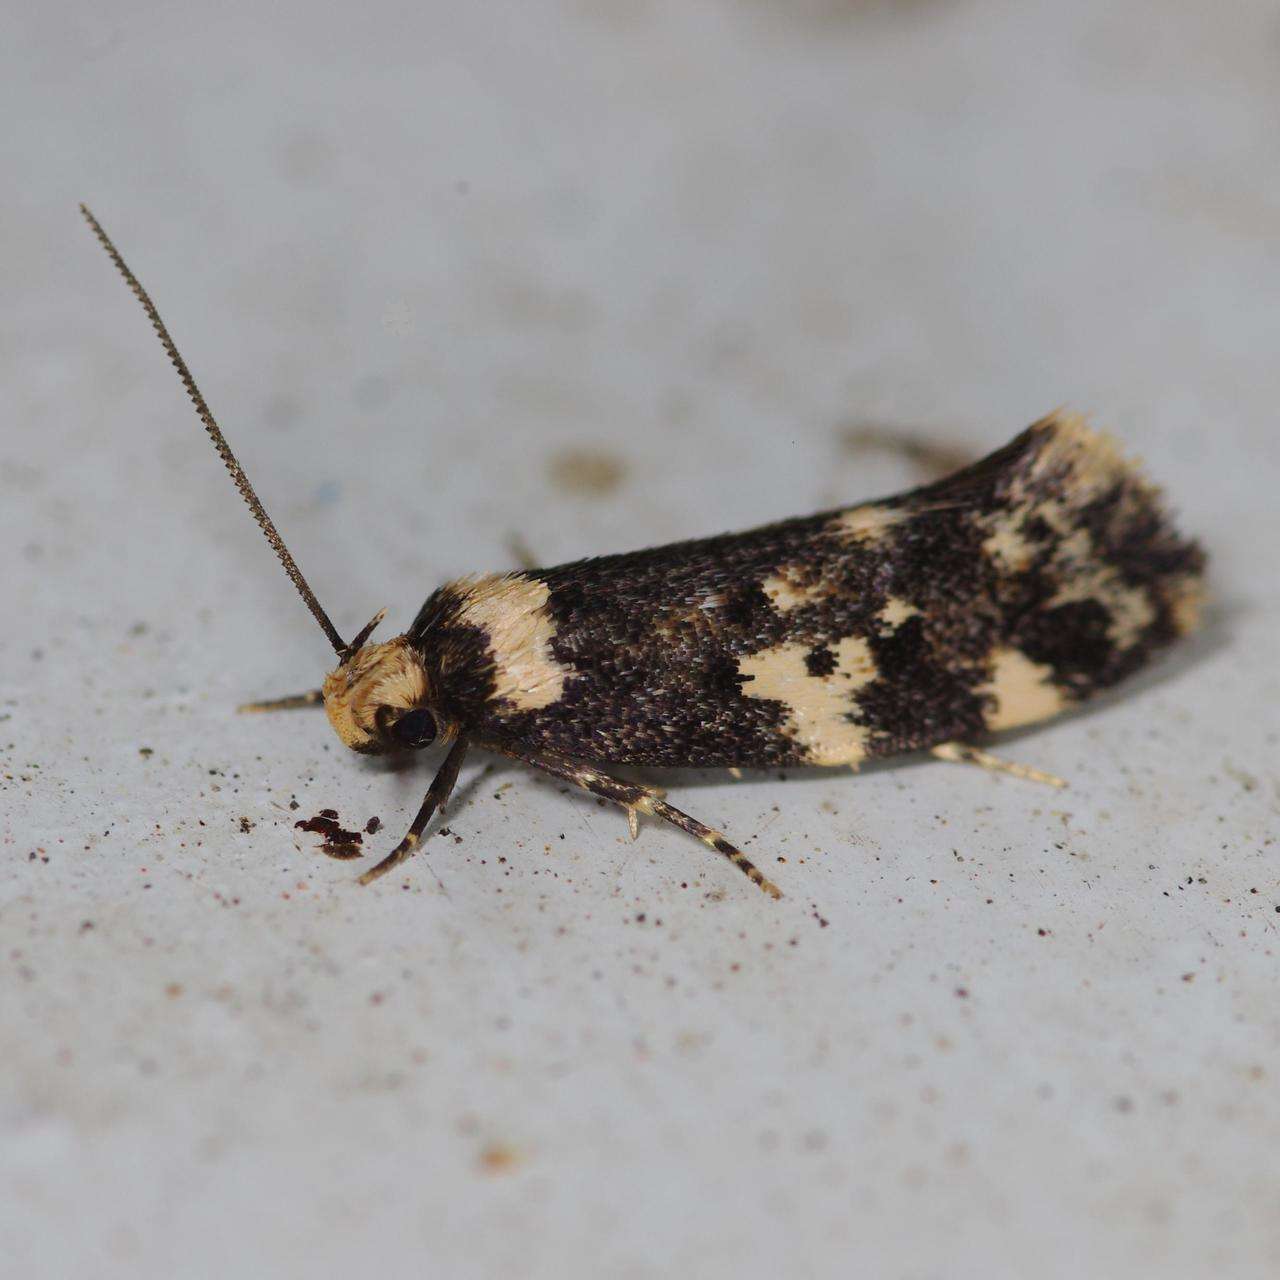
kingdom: Animalia
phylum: Arthropoda
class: Insecta
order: Lepidoptera
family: Oecophoridae
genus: Sphyrelata
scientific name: Sphyrelata amotella
